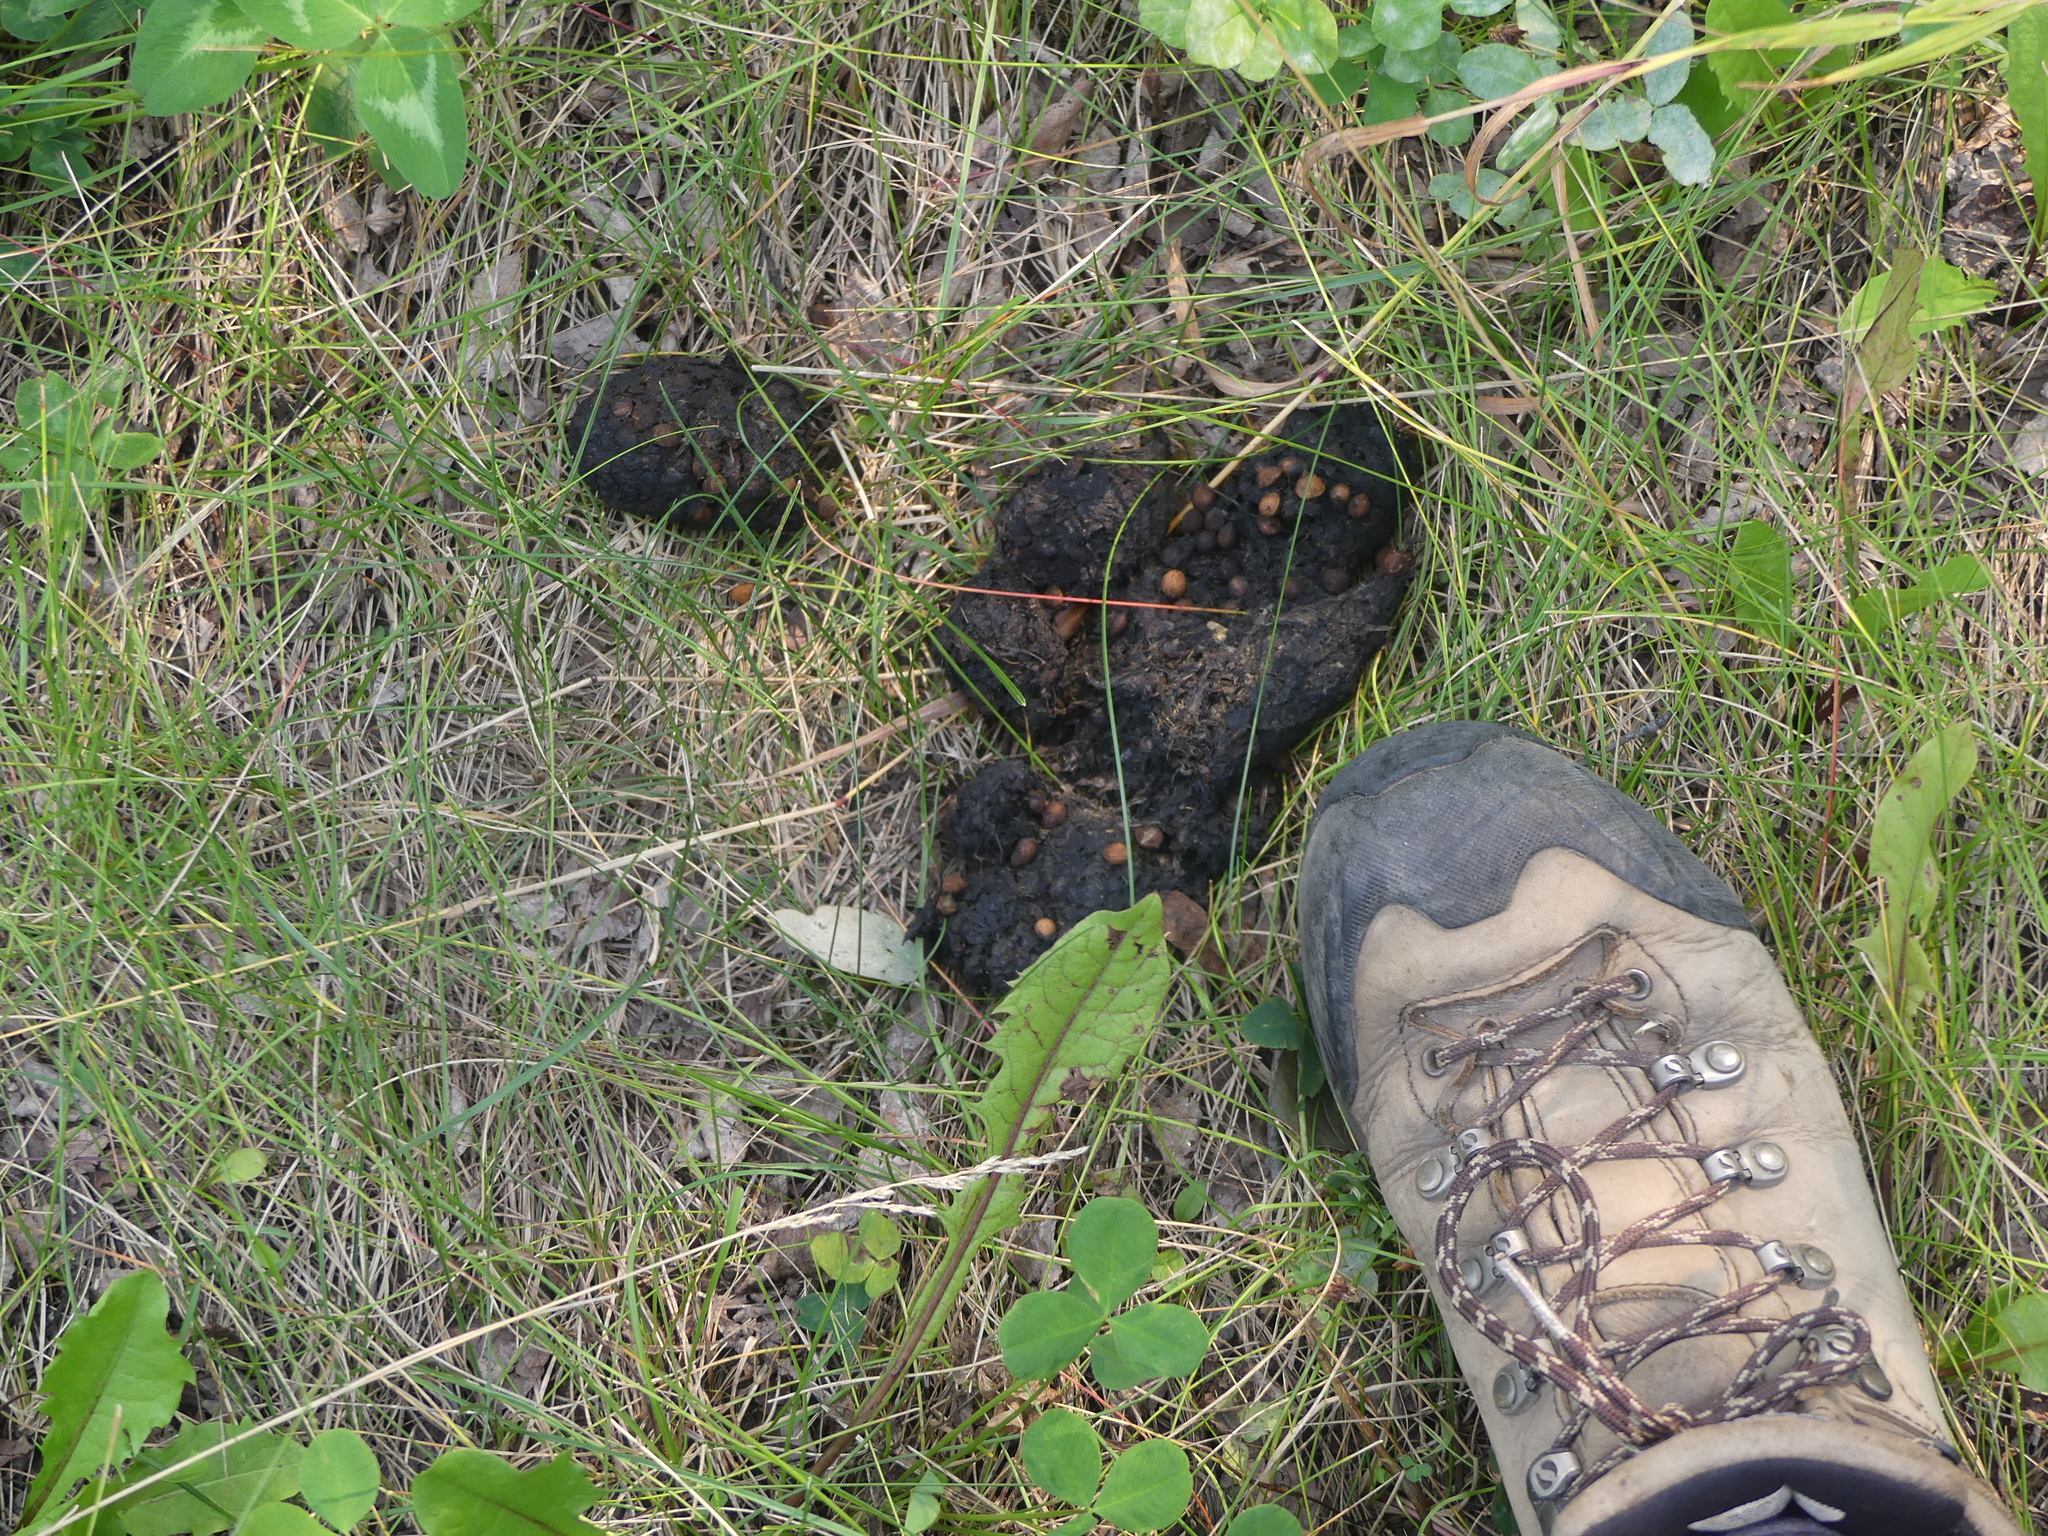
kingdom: Animalia
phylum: Chordata
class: Mammalia
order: Carnivora
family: Ursidae
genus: Ursus
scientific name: Ursus americanus
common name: American black bear
